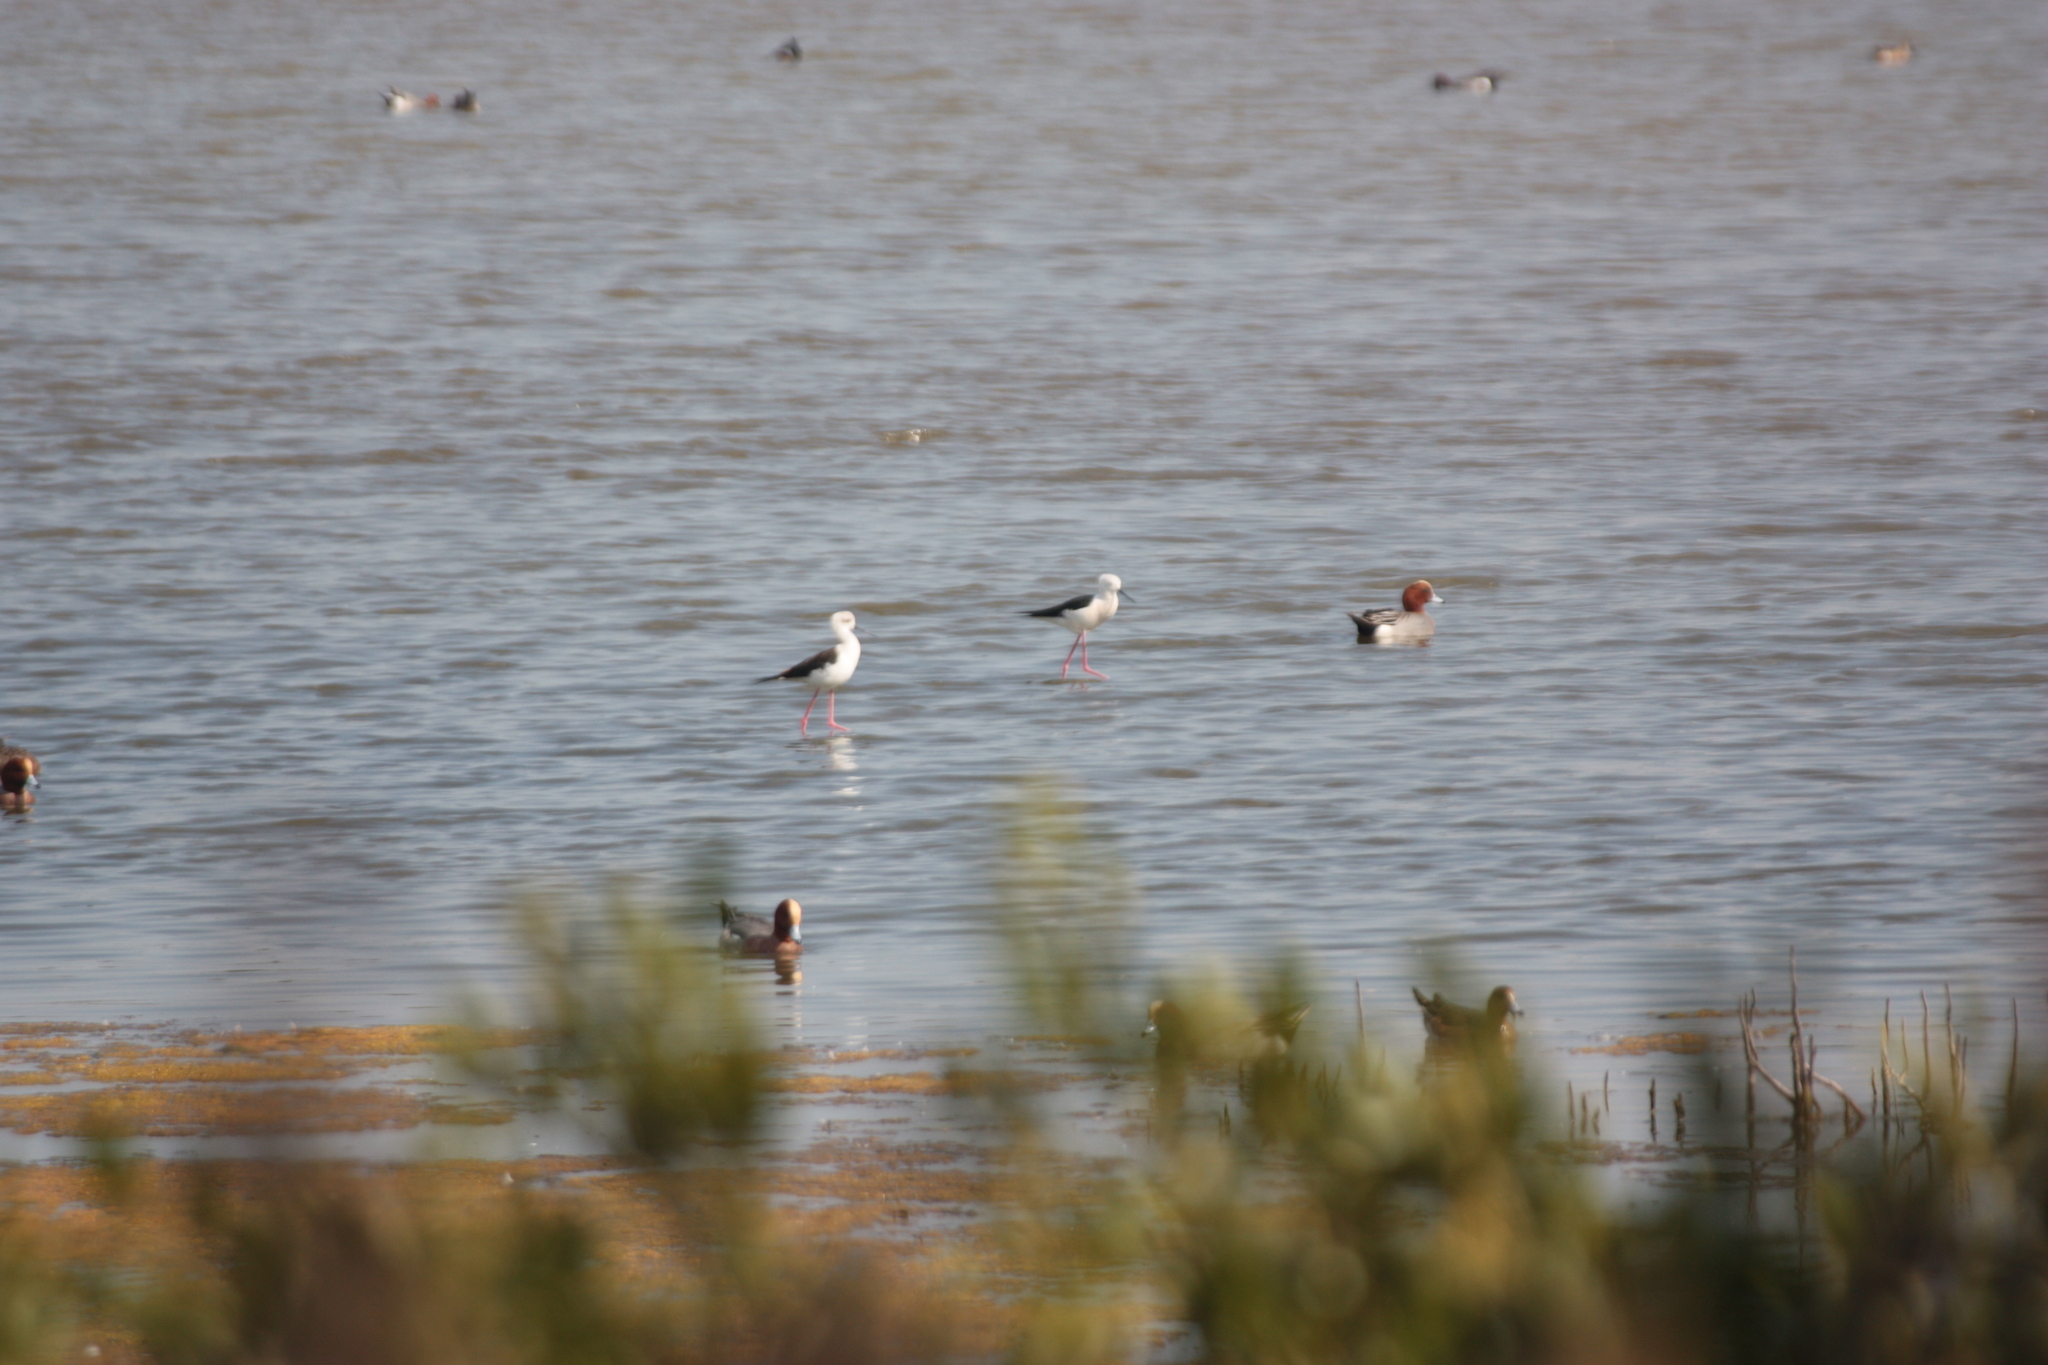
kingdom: Animalia
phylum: Chordata
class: Aves
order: Charadriiformes
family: Recurvirostridae
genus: Himantopus
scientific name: Himantopus himantopus
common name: Black-winged stilt
